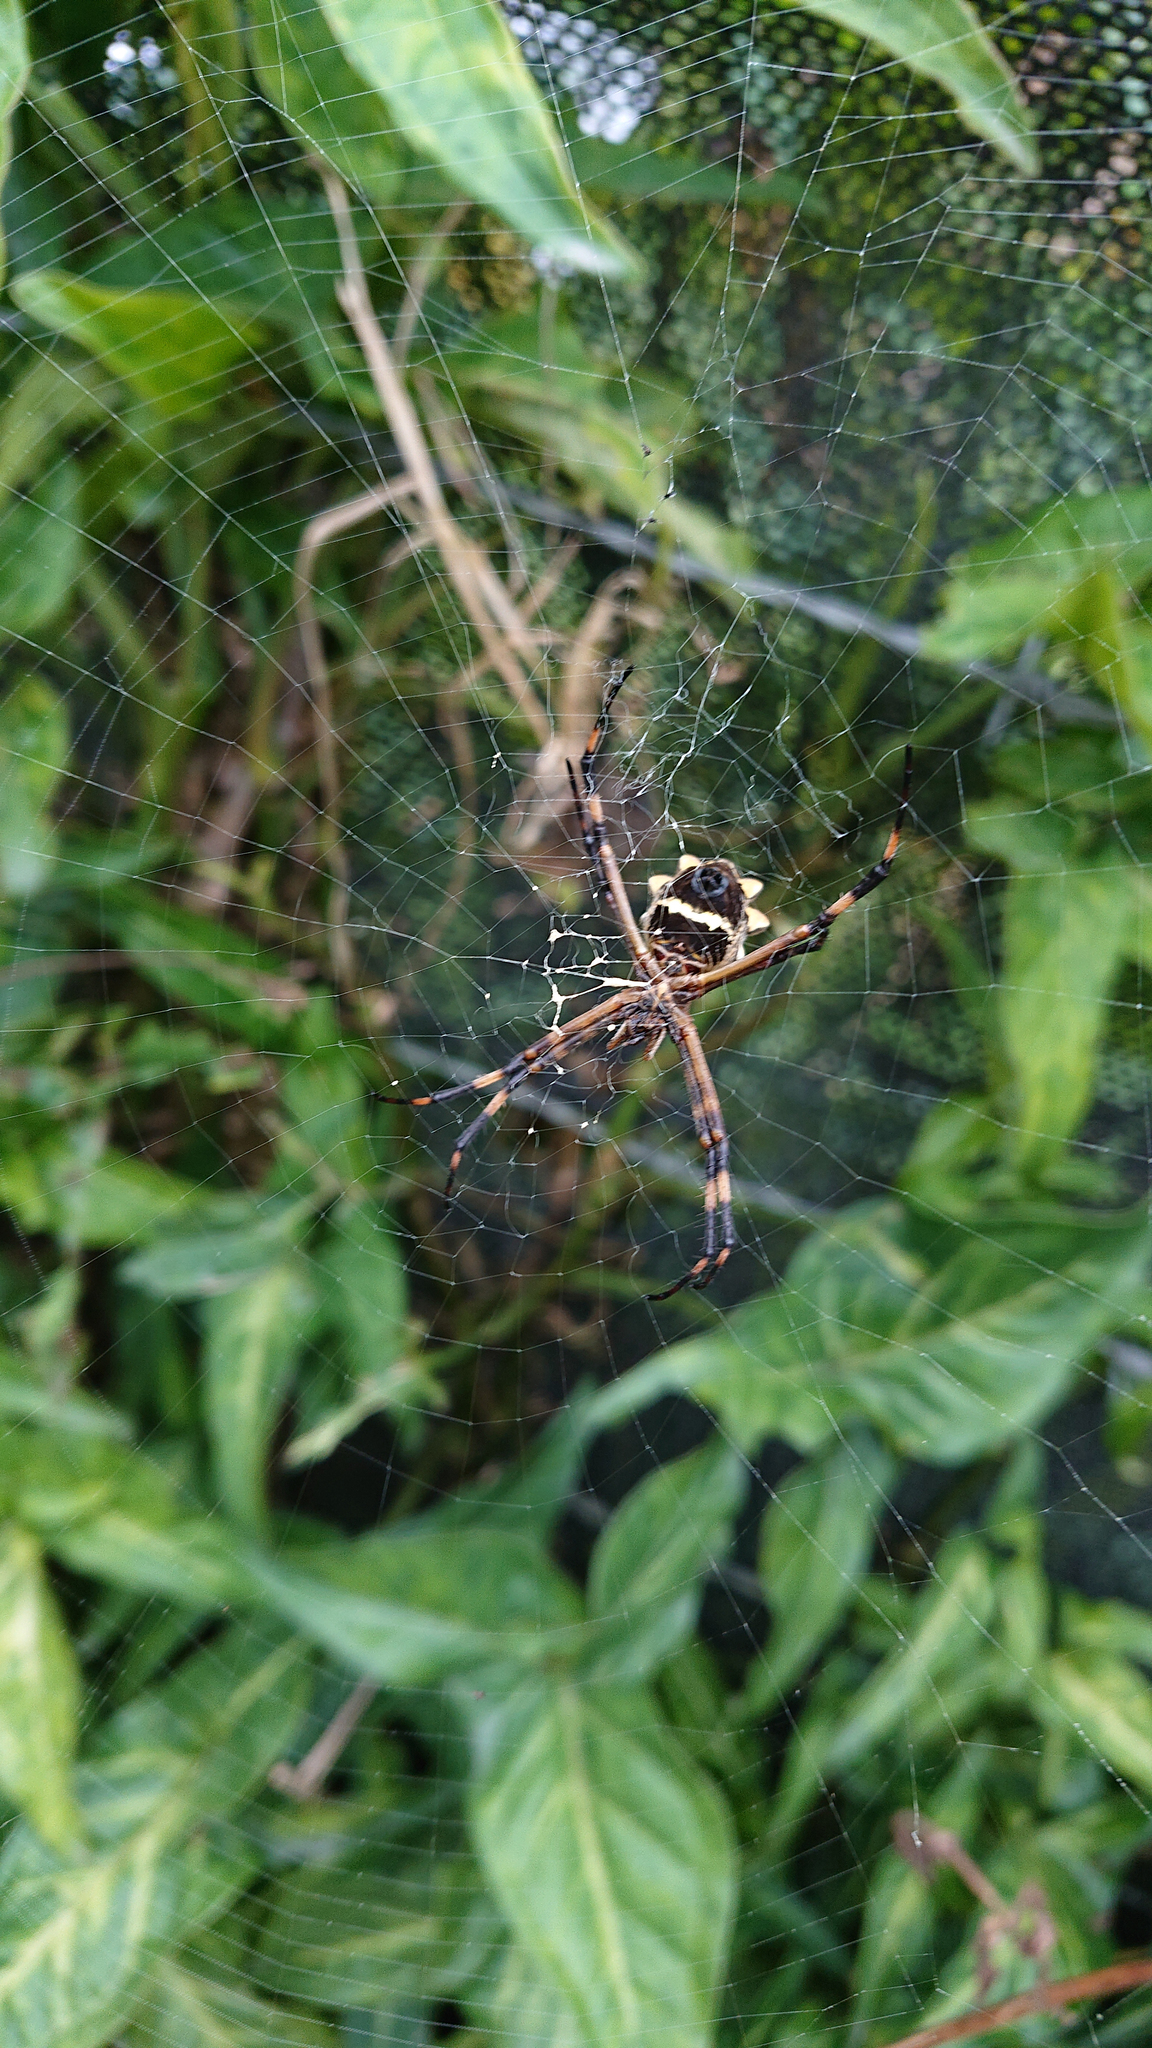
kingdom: Animalia
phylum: Arthropoda
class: Arachnida
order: Araneae
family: Araneidae
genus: Argiope
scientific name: Argiope argentata
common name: Orb weavers
